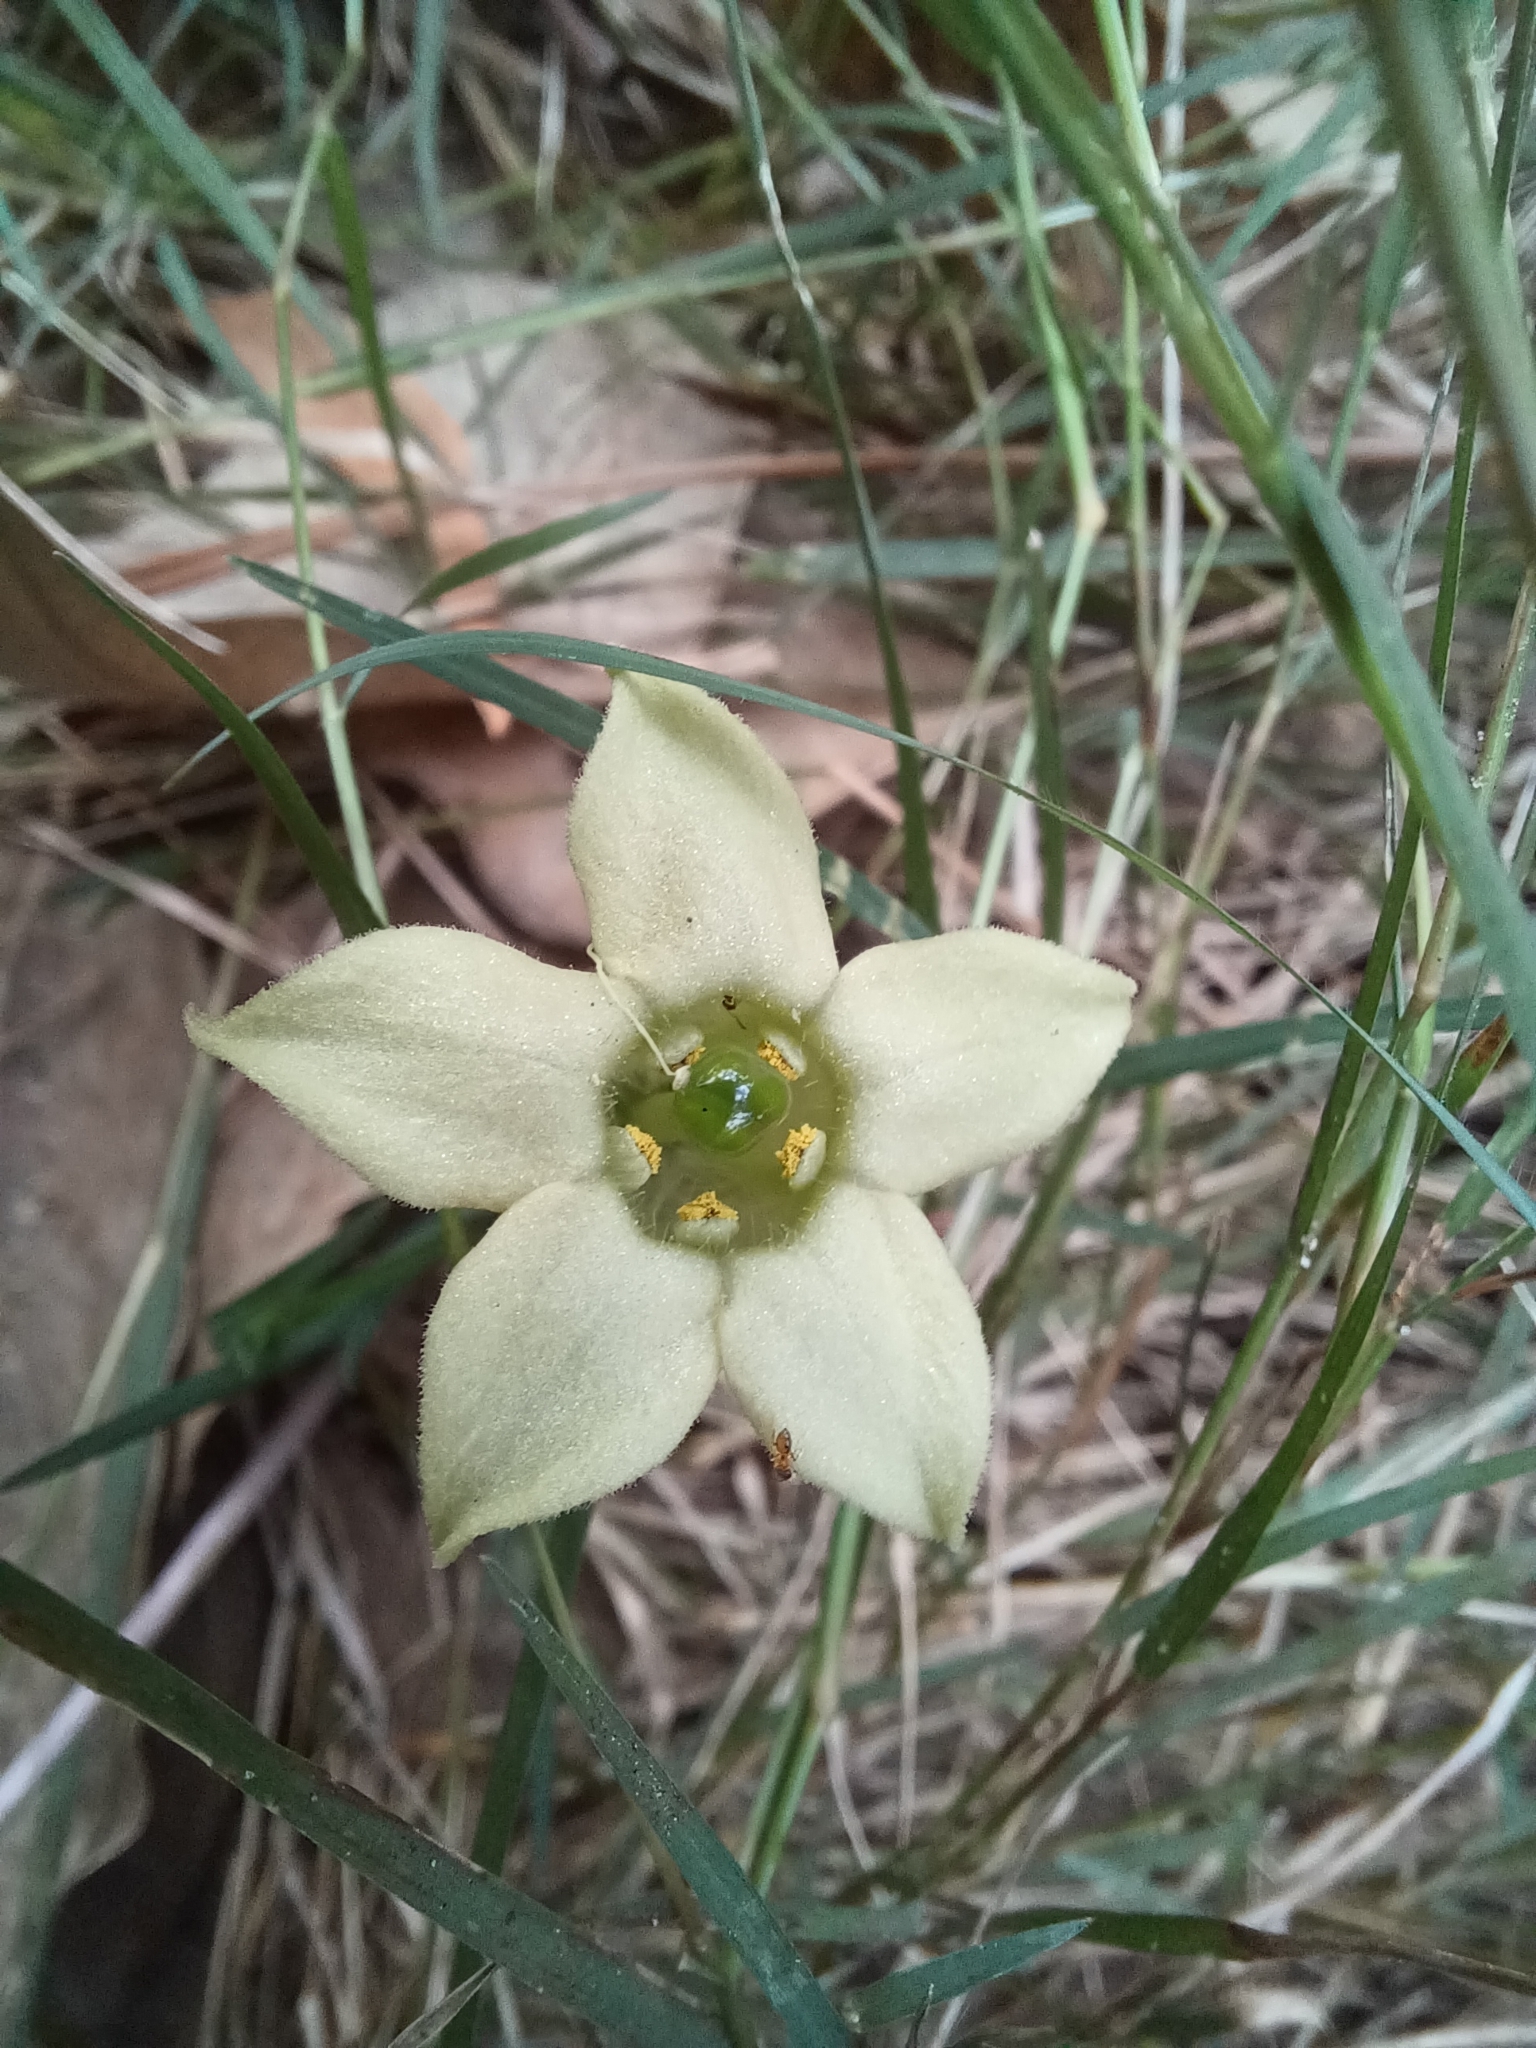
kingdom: Plantae
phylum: Tracheophyta
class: Magnoliopsida
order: Solanales
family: Solanaceae
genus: Jaborosa
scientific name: Jaborosa runcinata
